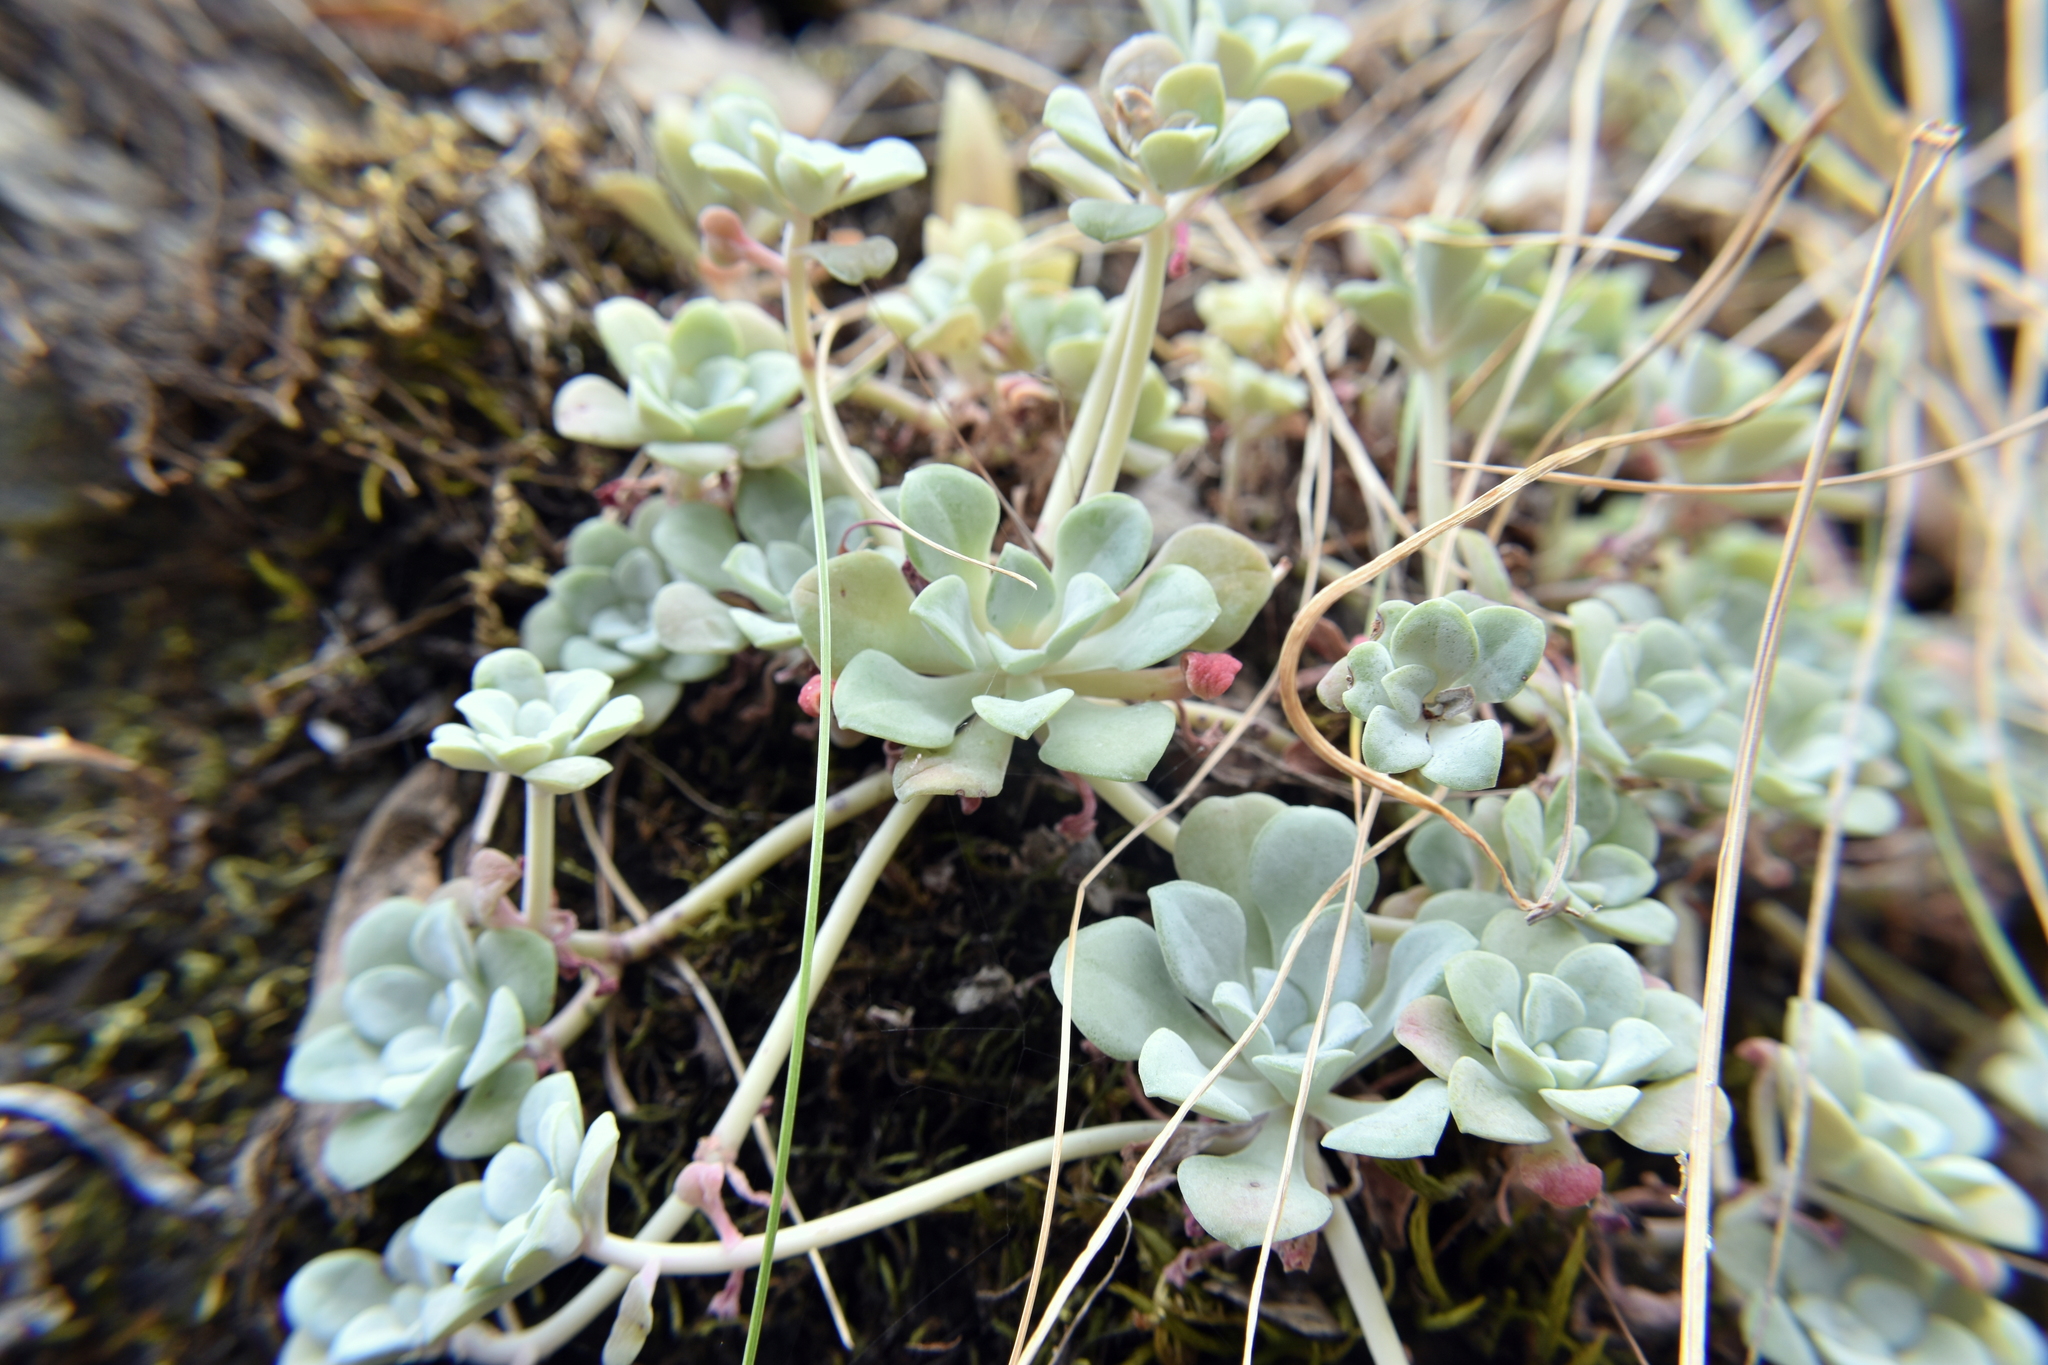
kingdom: Plantae
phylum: Tracheophyta
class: Magnoliopsida
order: Saxifragales
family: Crassulaceae
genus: Sedum
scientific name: Sedum spathulifolium
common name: Colorado stonecrop
